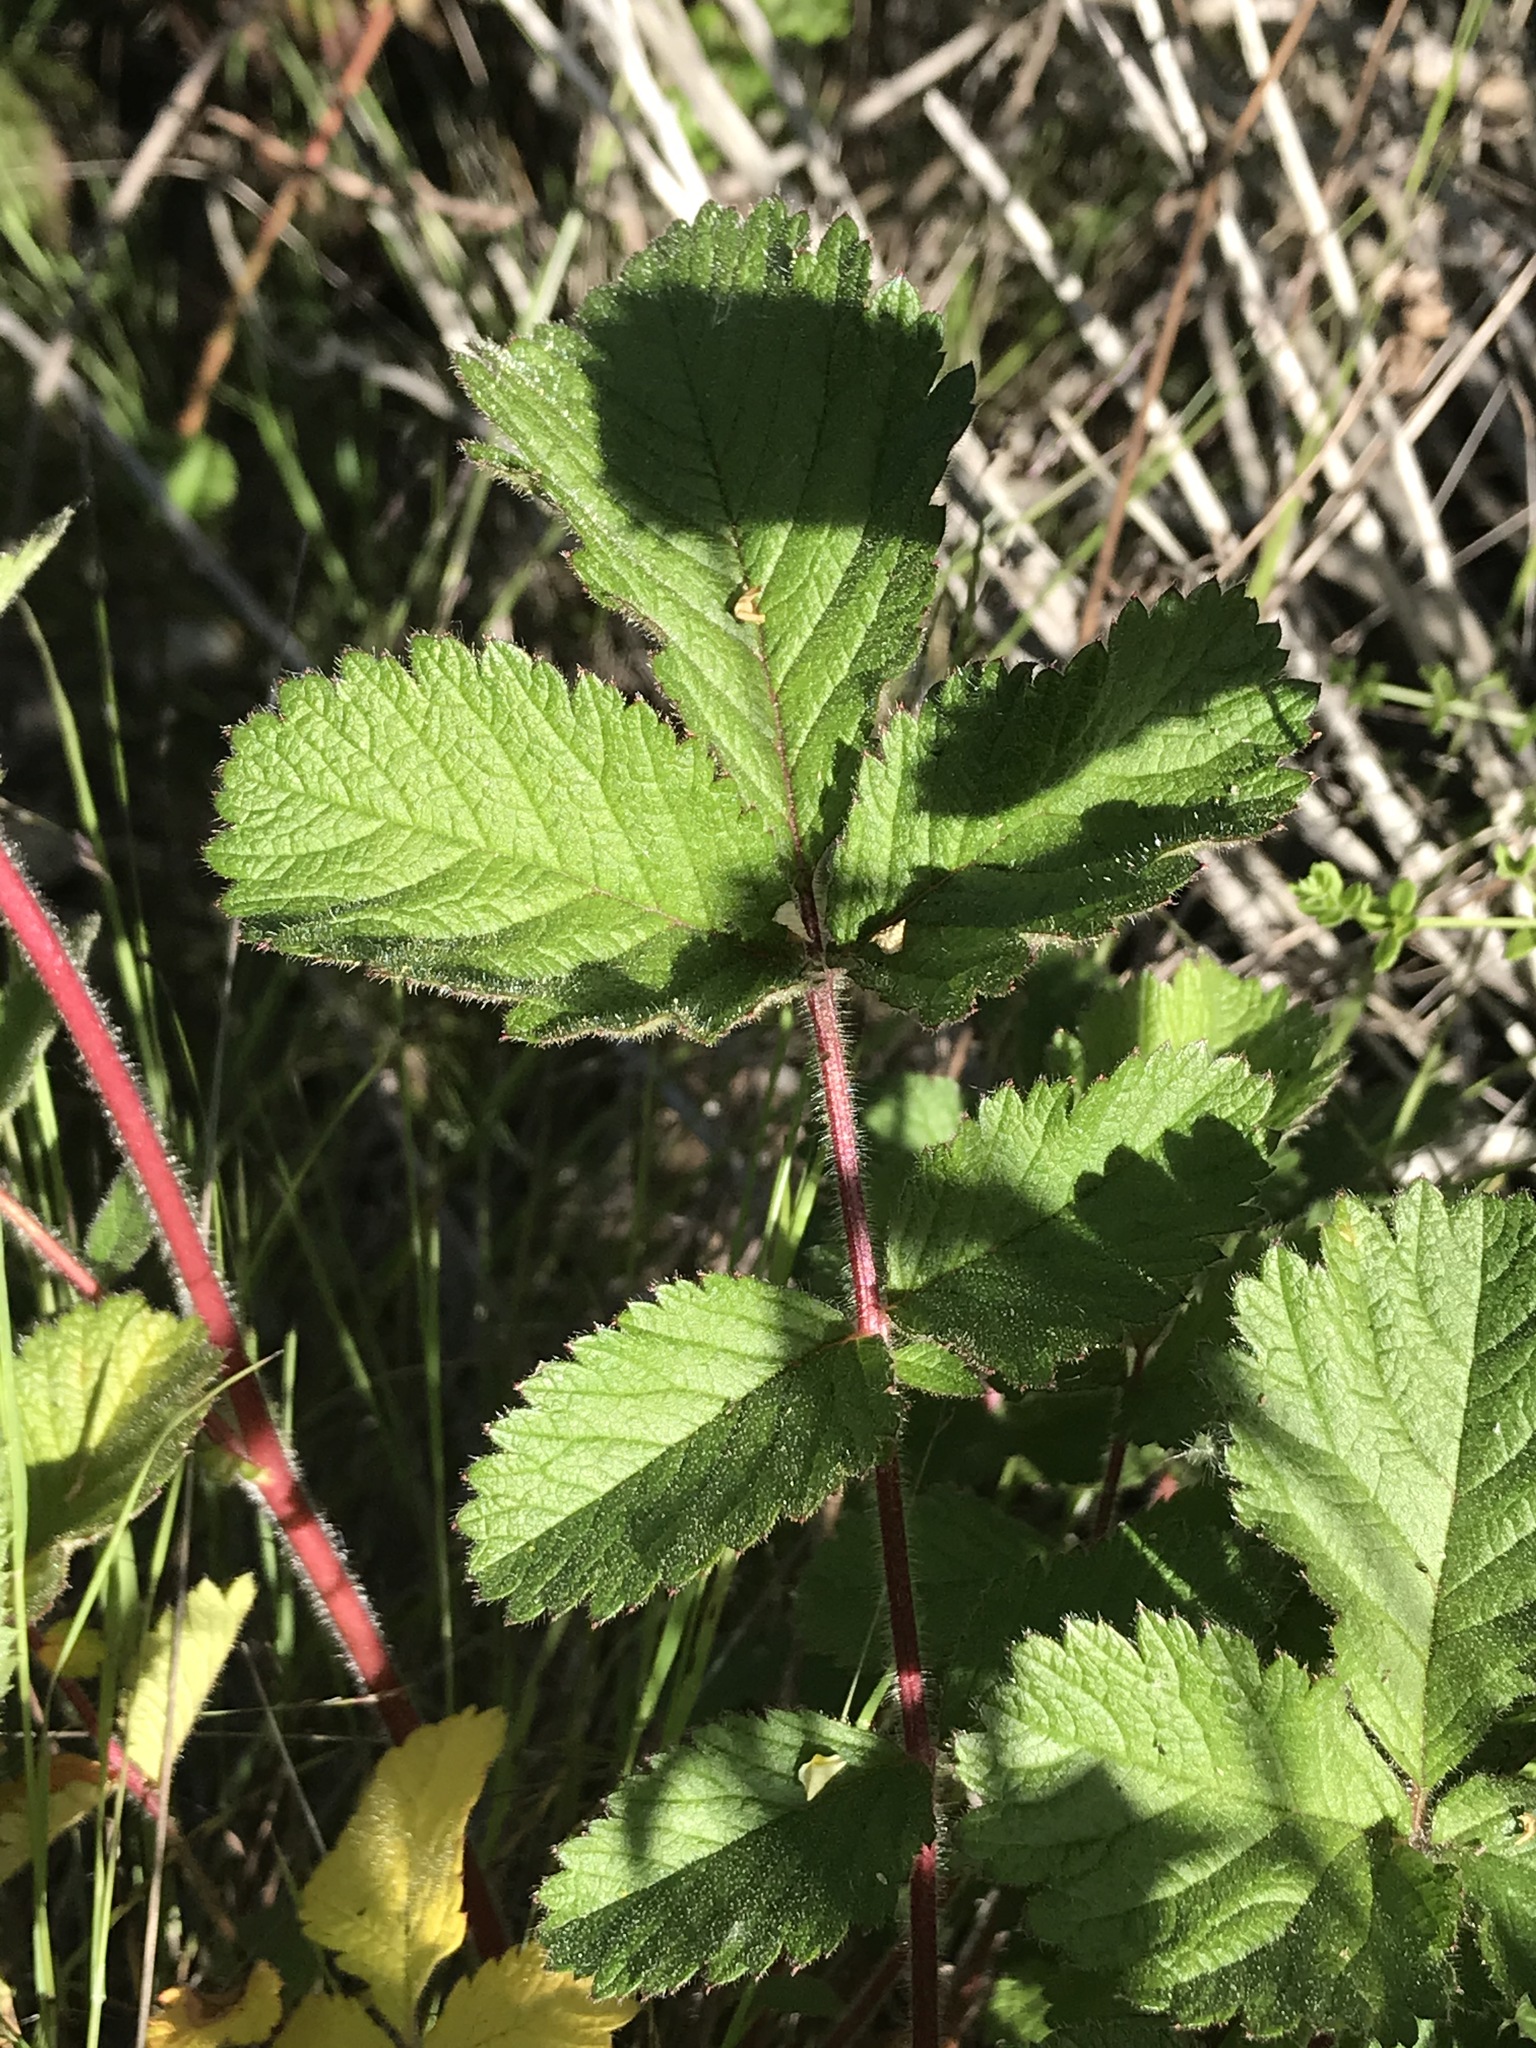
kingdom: Plantae
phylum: Tracheophyta
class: Magnoliopsida
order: Rosales
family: Rosaceae
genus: Drymocallis
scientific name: Drymocallis glandulosa
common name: Sticky cinquefoil
